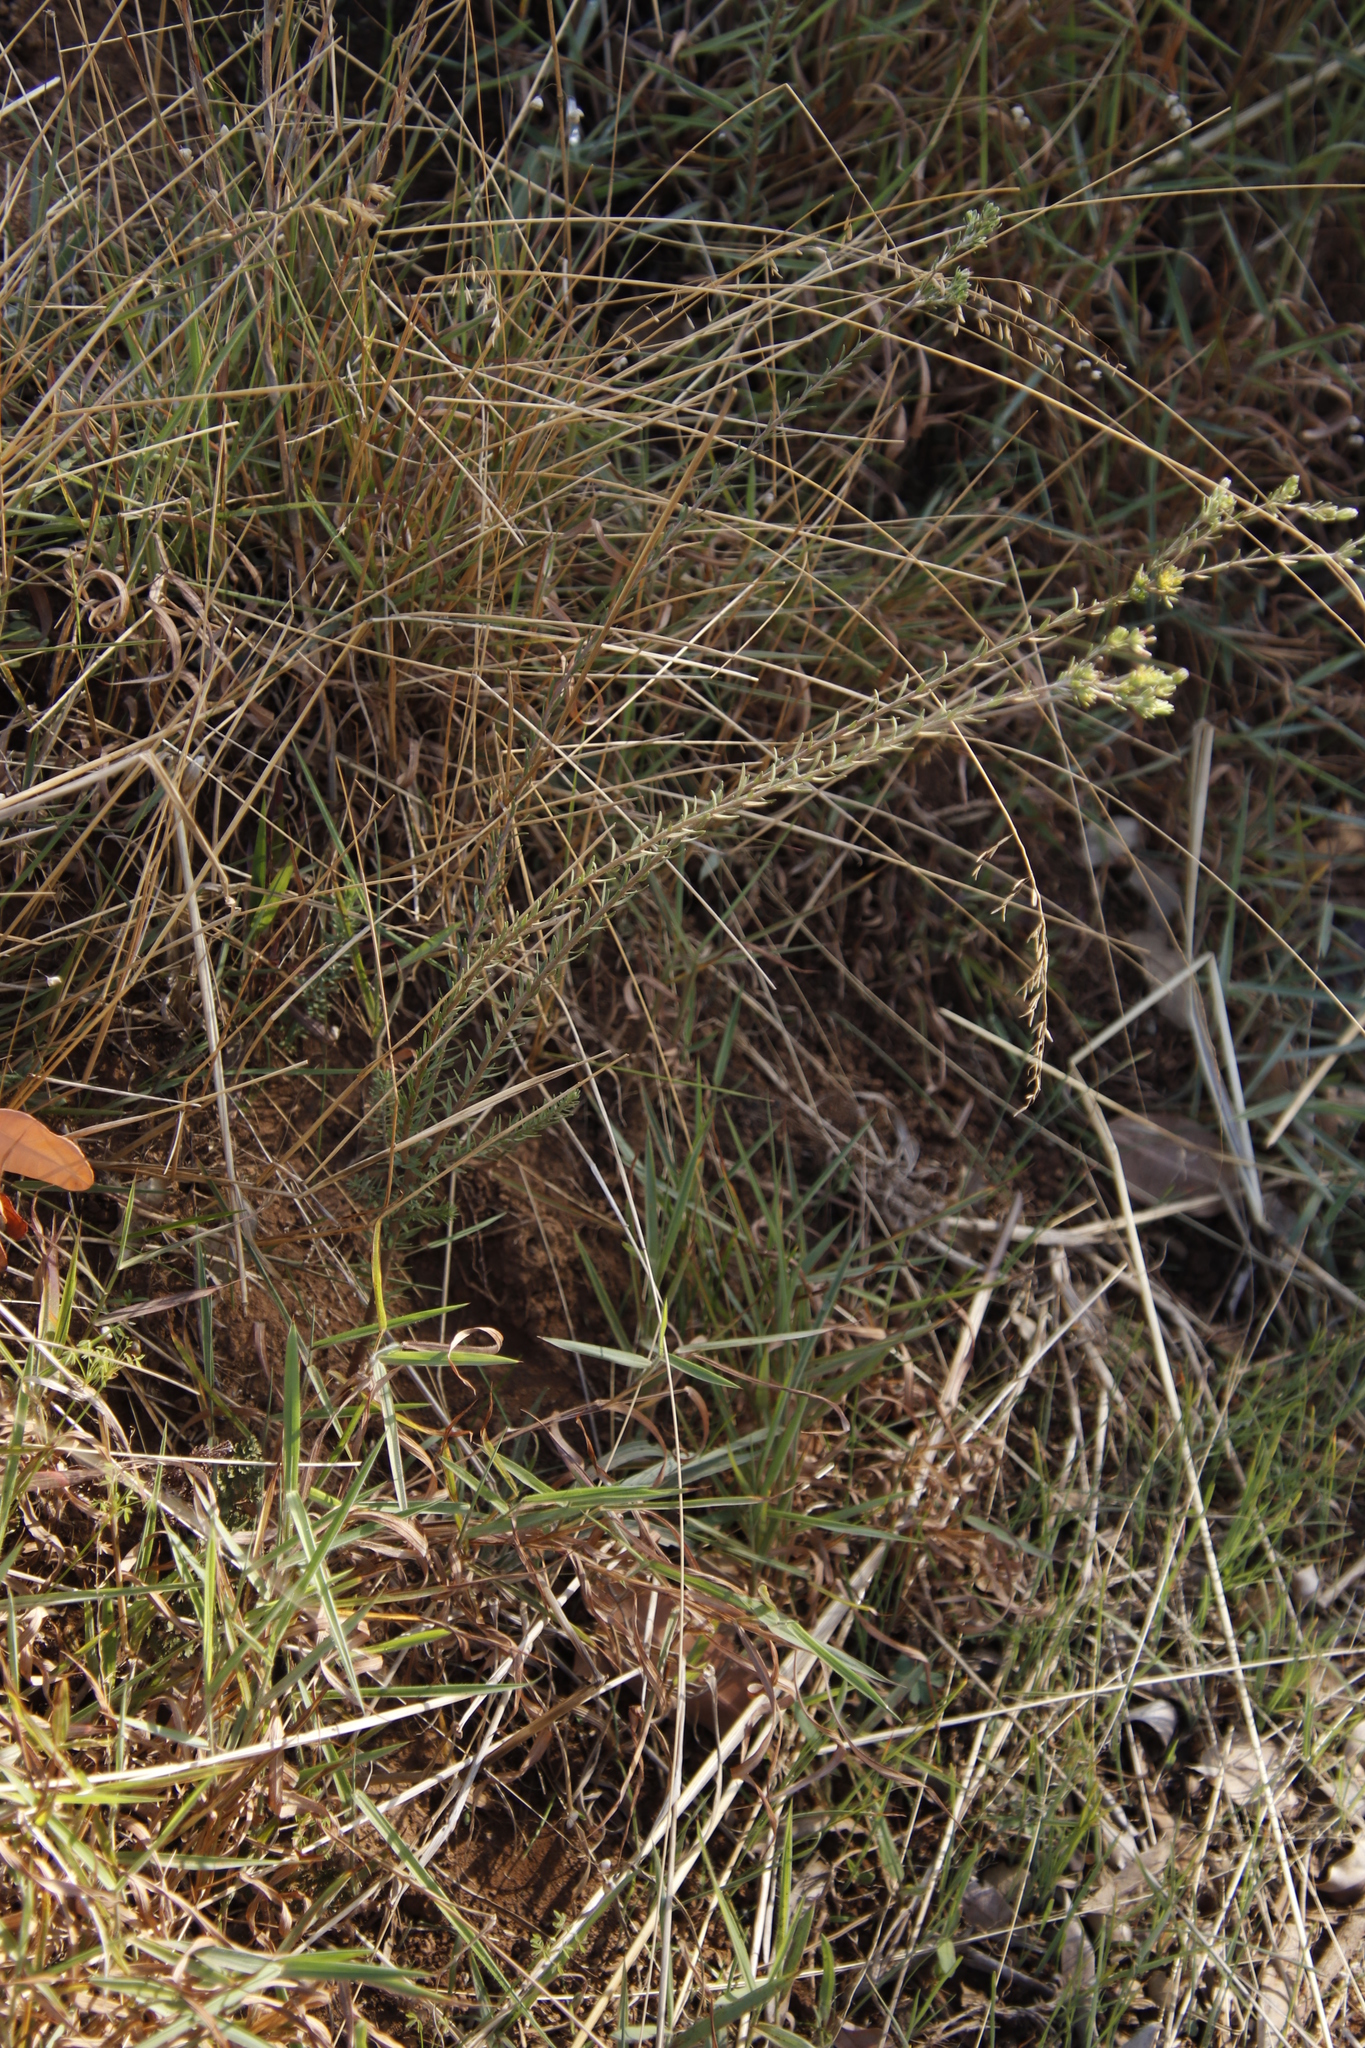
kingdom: Plantae
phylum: Tracheophyta
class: Magnoliopsida
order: Malvales
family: Thymelaeaceae
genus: Gnidia
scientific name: Gnidia laxa
